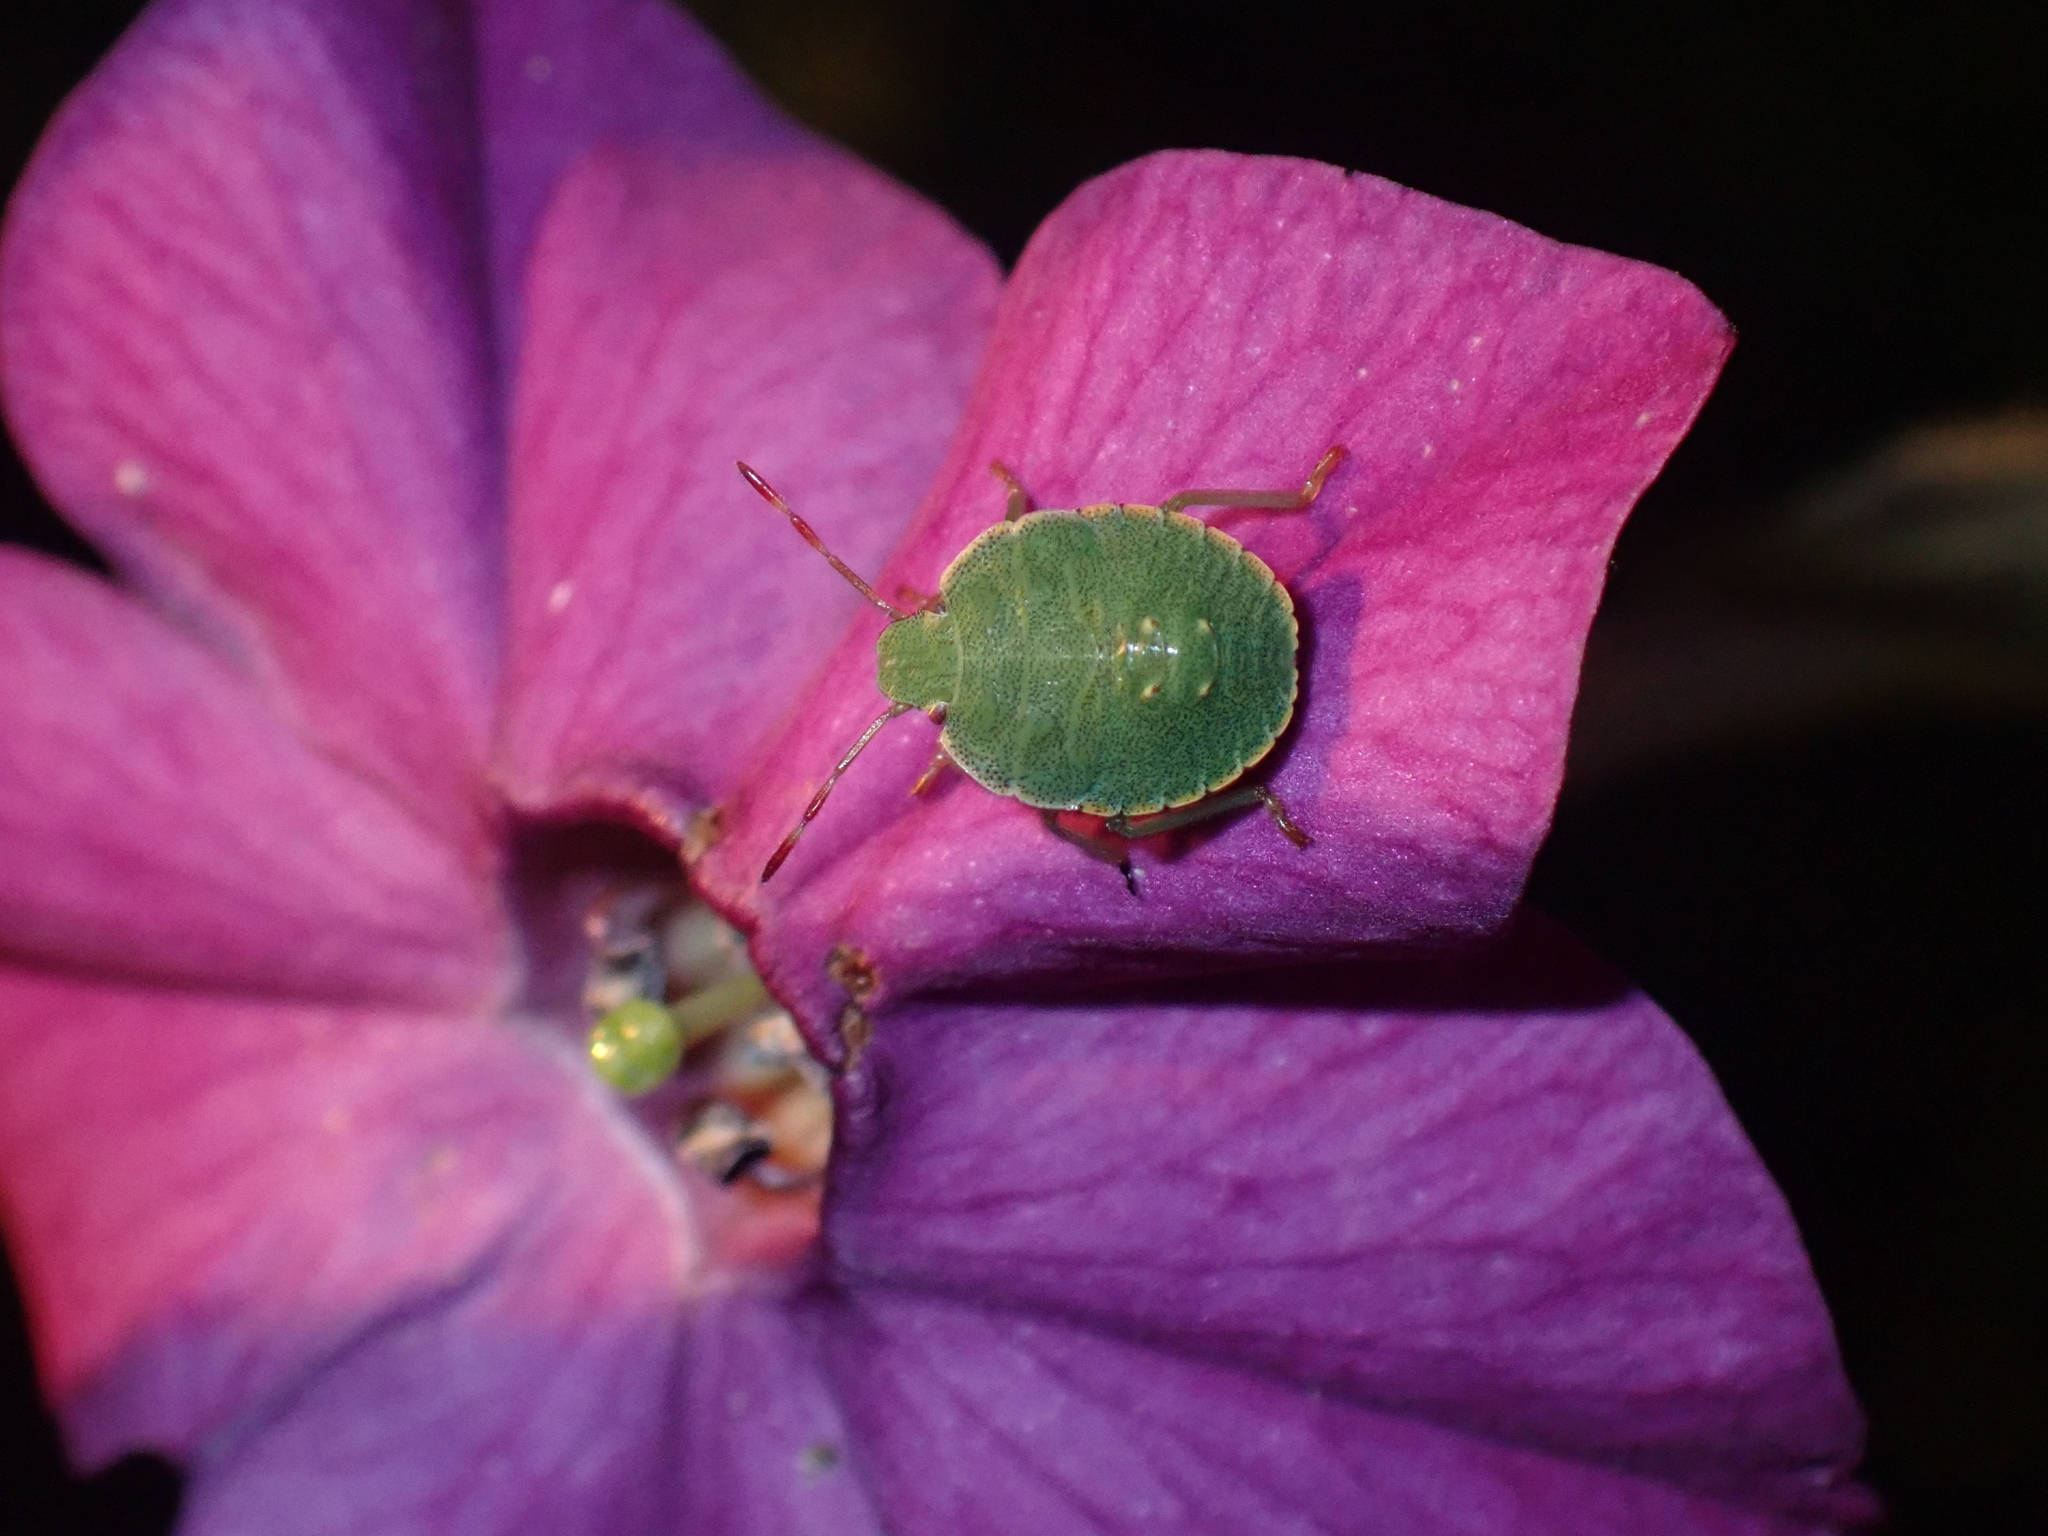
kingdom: Animalia
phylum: Arthropoda
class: Insecta
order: Hemiptera
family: Pentatomidae
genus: Palomena
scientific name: Palomena prasina
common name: Green shieldbug
